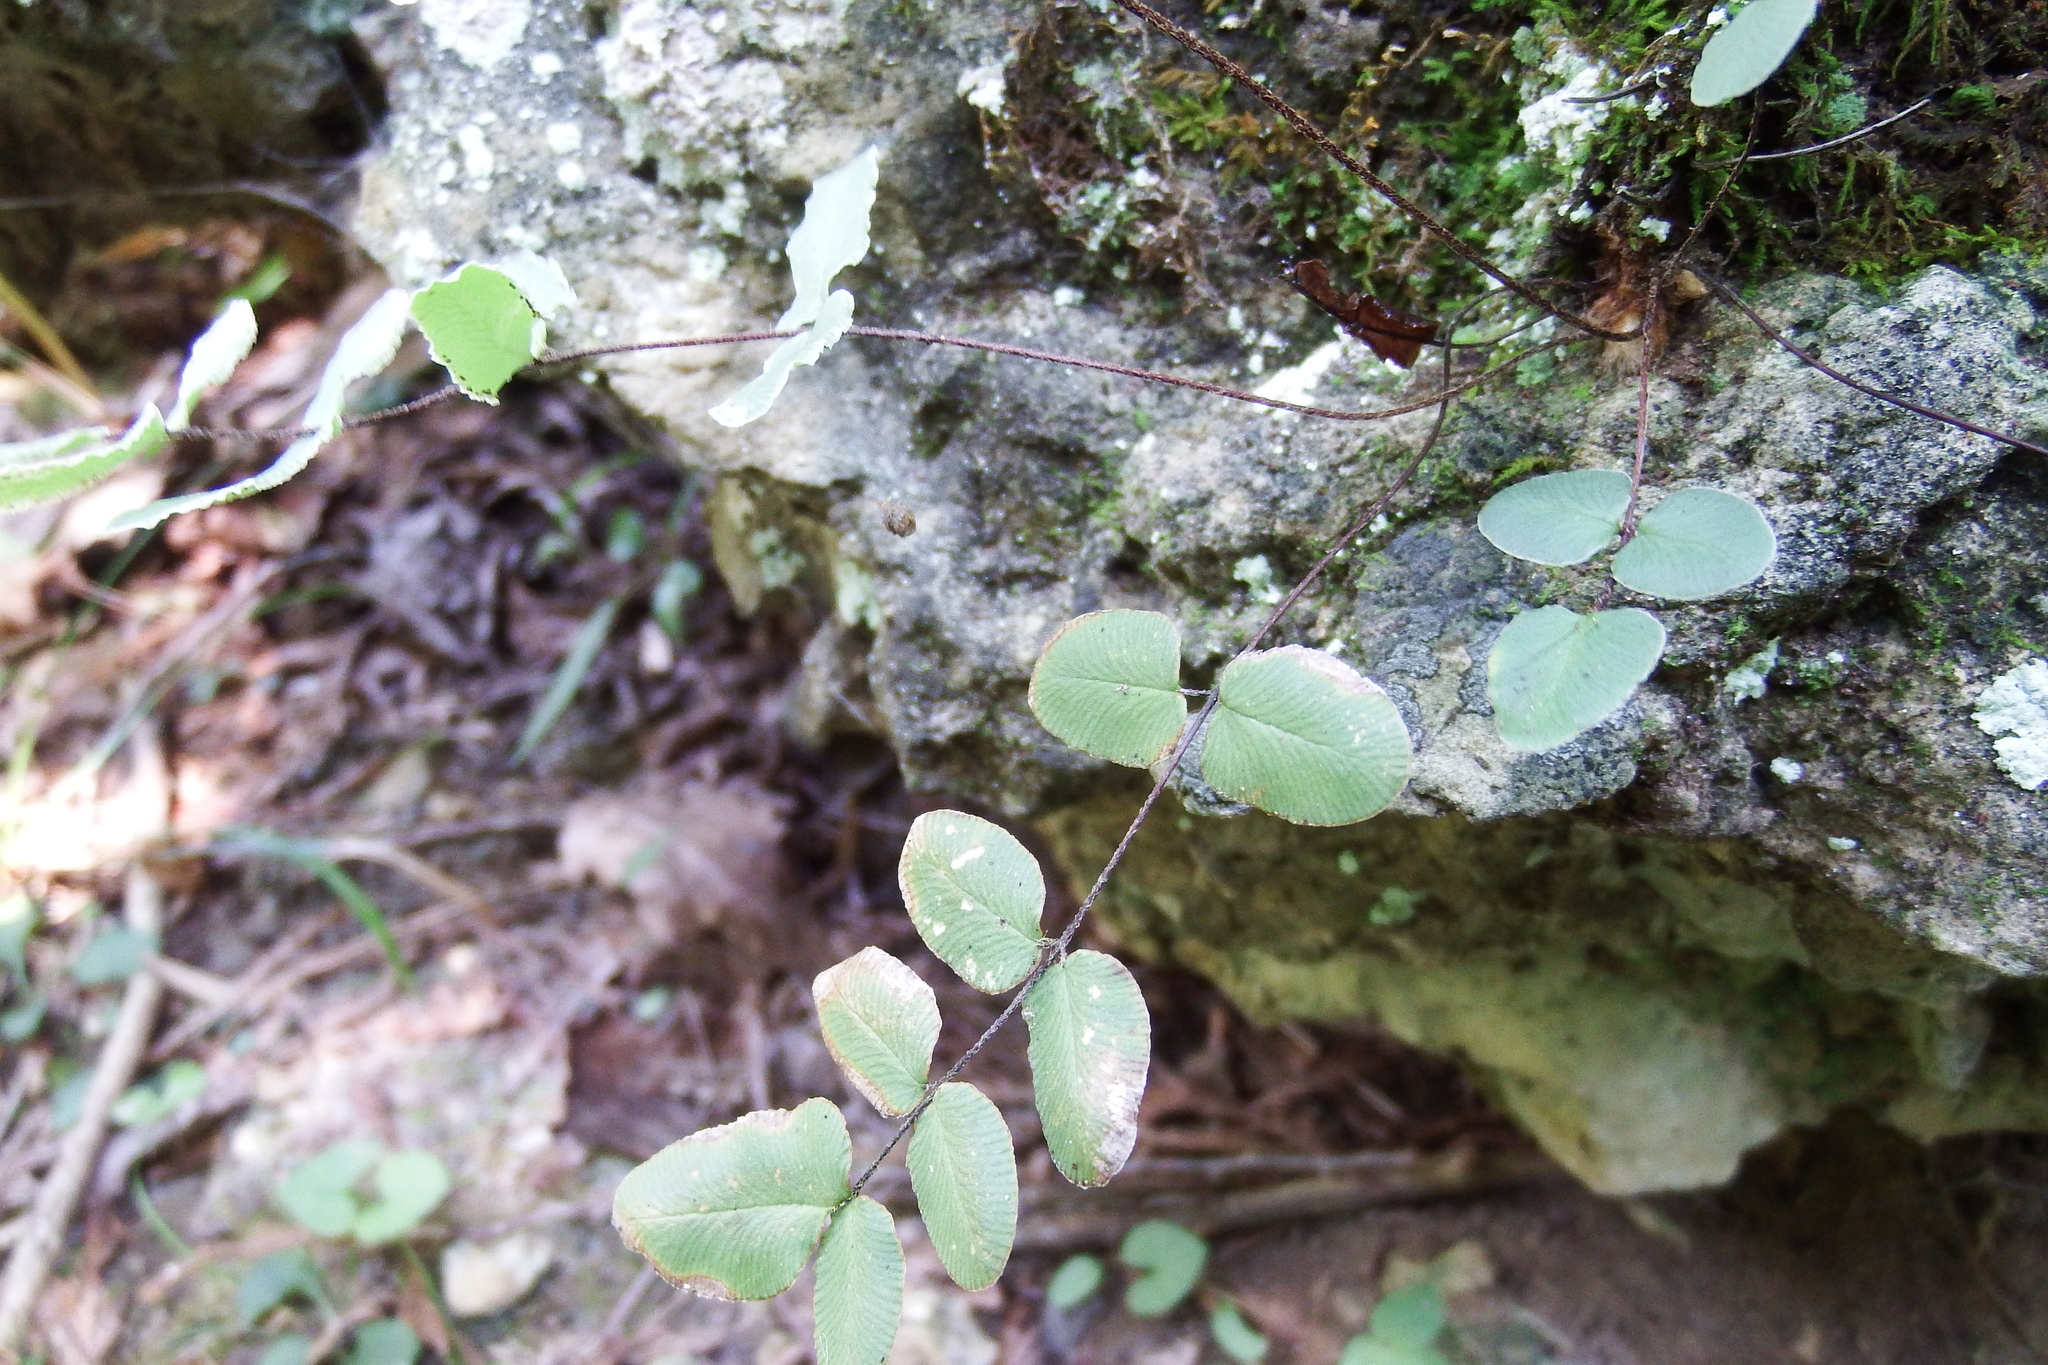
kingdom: Plantae
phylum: Tracheophyta
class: Polypodiopsida
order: Polypodiales
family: Pteridaceae
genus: Pellaea
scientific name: Pellaea atropurpurea
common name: Hairy cliffbrake
